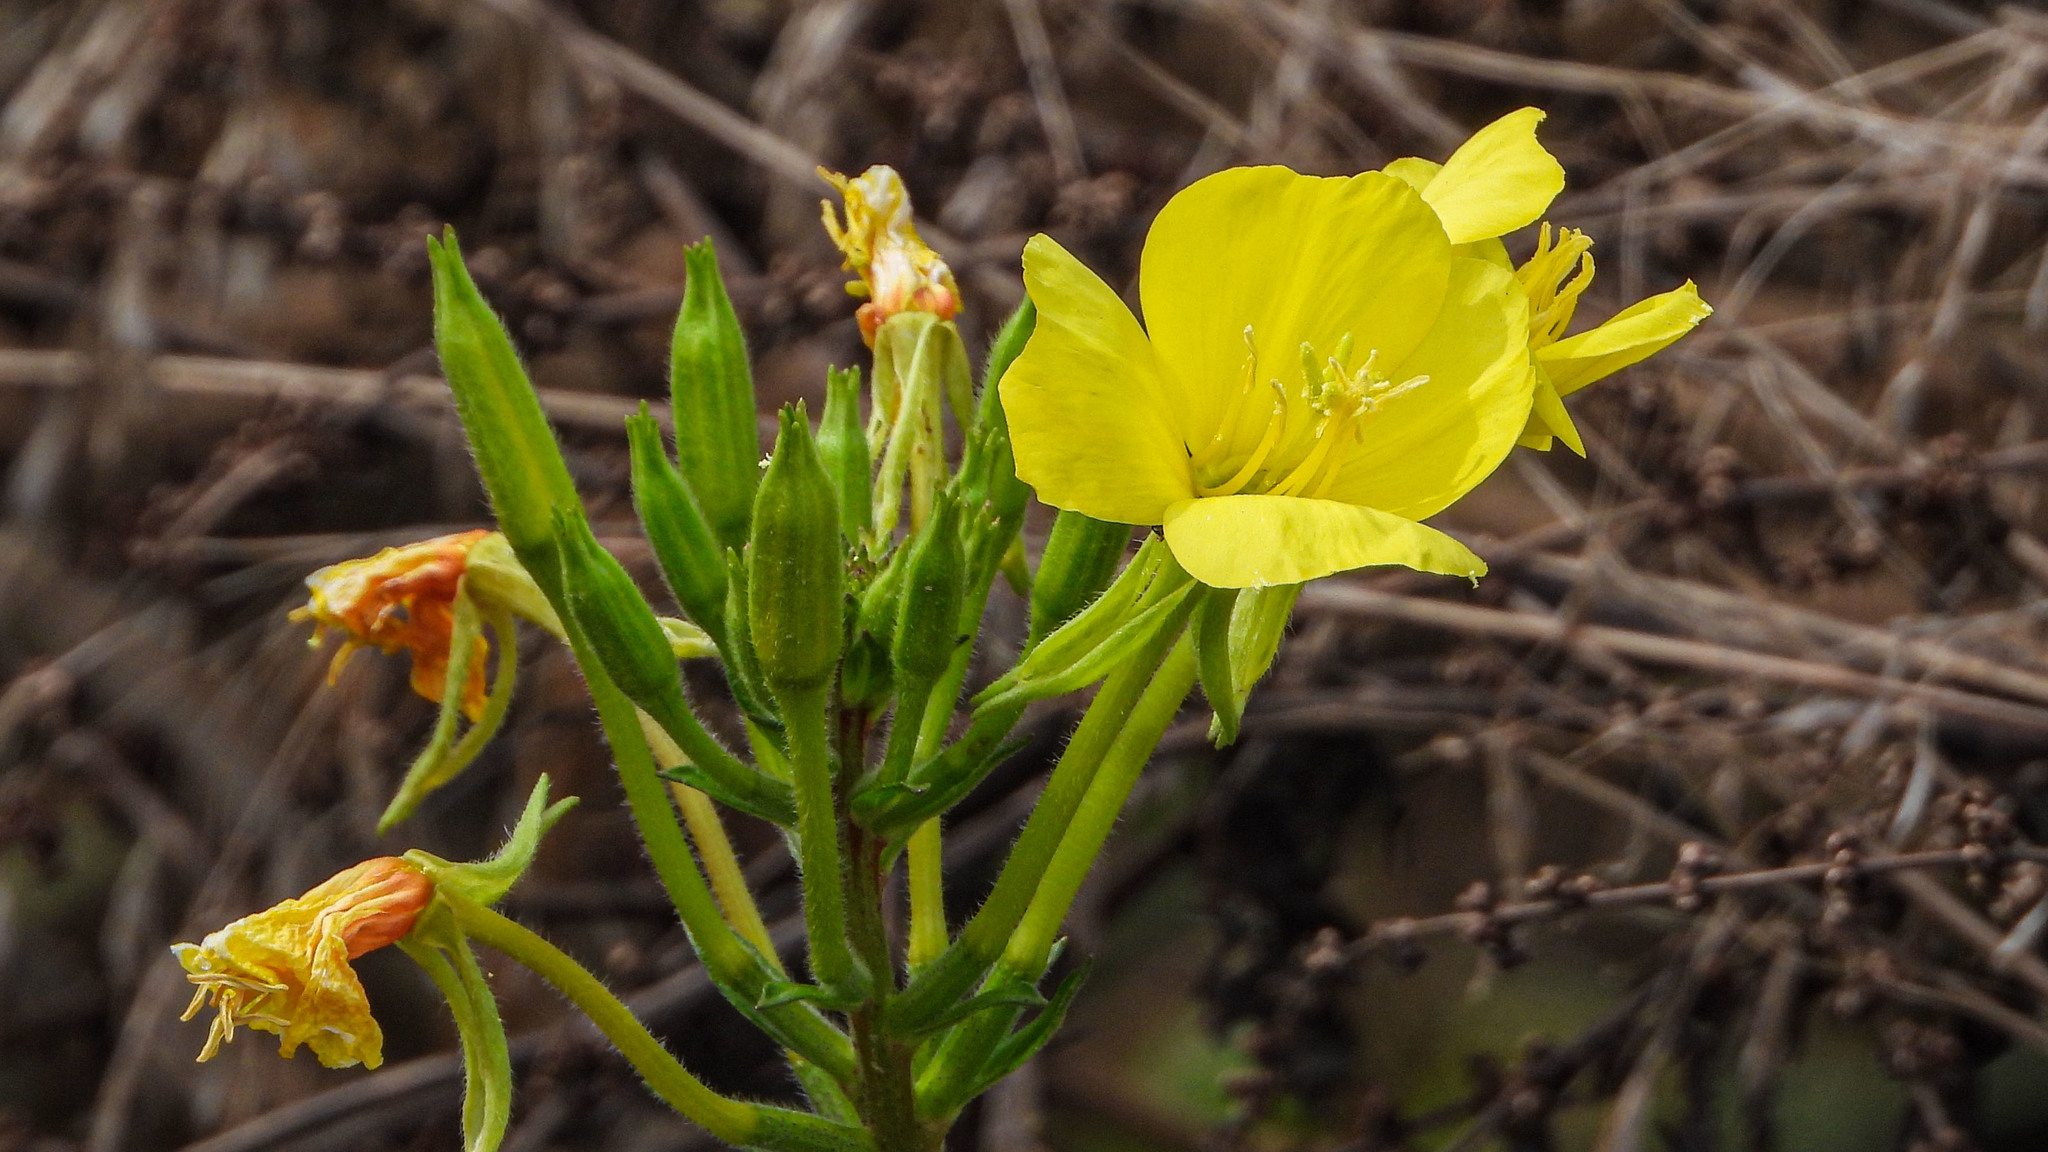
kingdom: Plantae
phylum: Tracheophyta
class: Magnoliopsida
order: Myrtales
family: Onagraceae
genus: Oenothera
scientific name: Oenothera biennis
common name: Common evening-primrose
